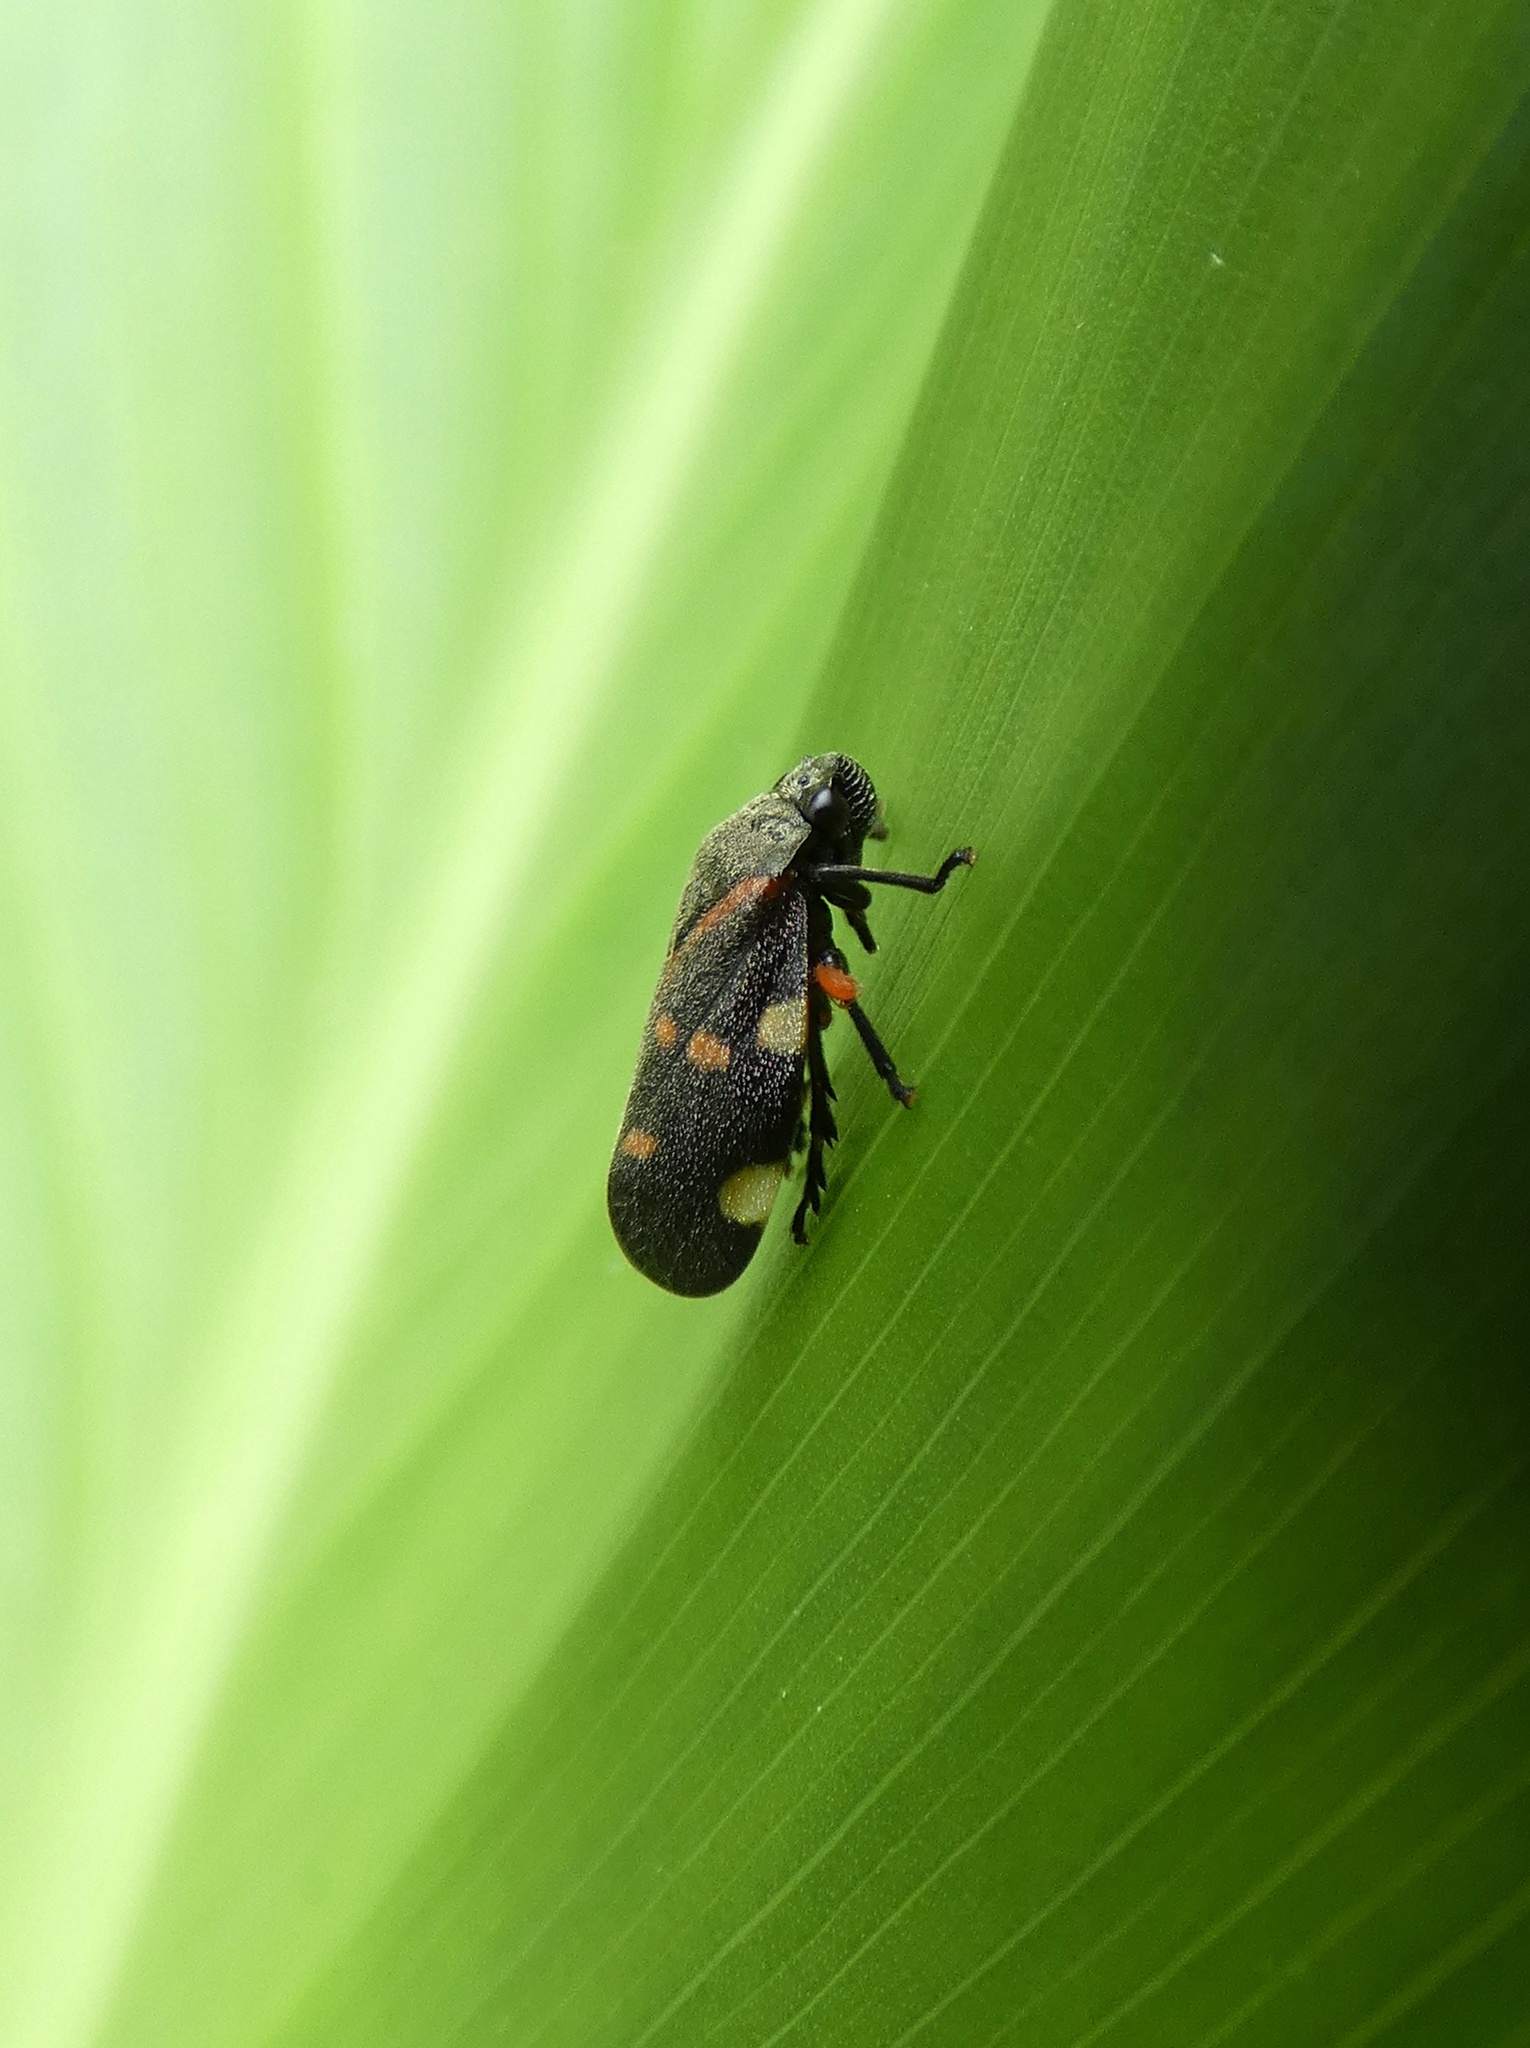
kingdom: Animalia
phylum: Arthropoda
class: Insecta
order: Hemiptera
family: Cercopidae
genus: Aeneolamia
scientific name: Aeneolamia lepidior
